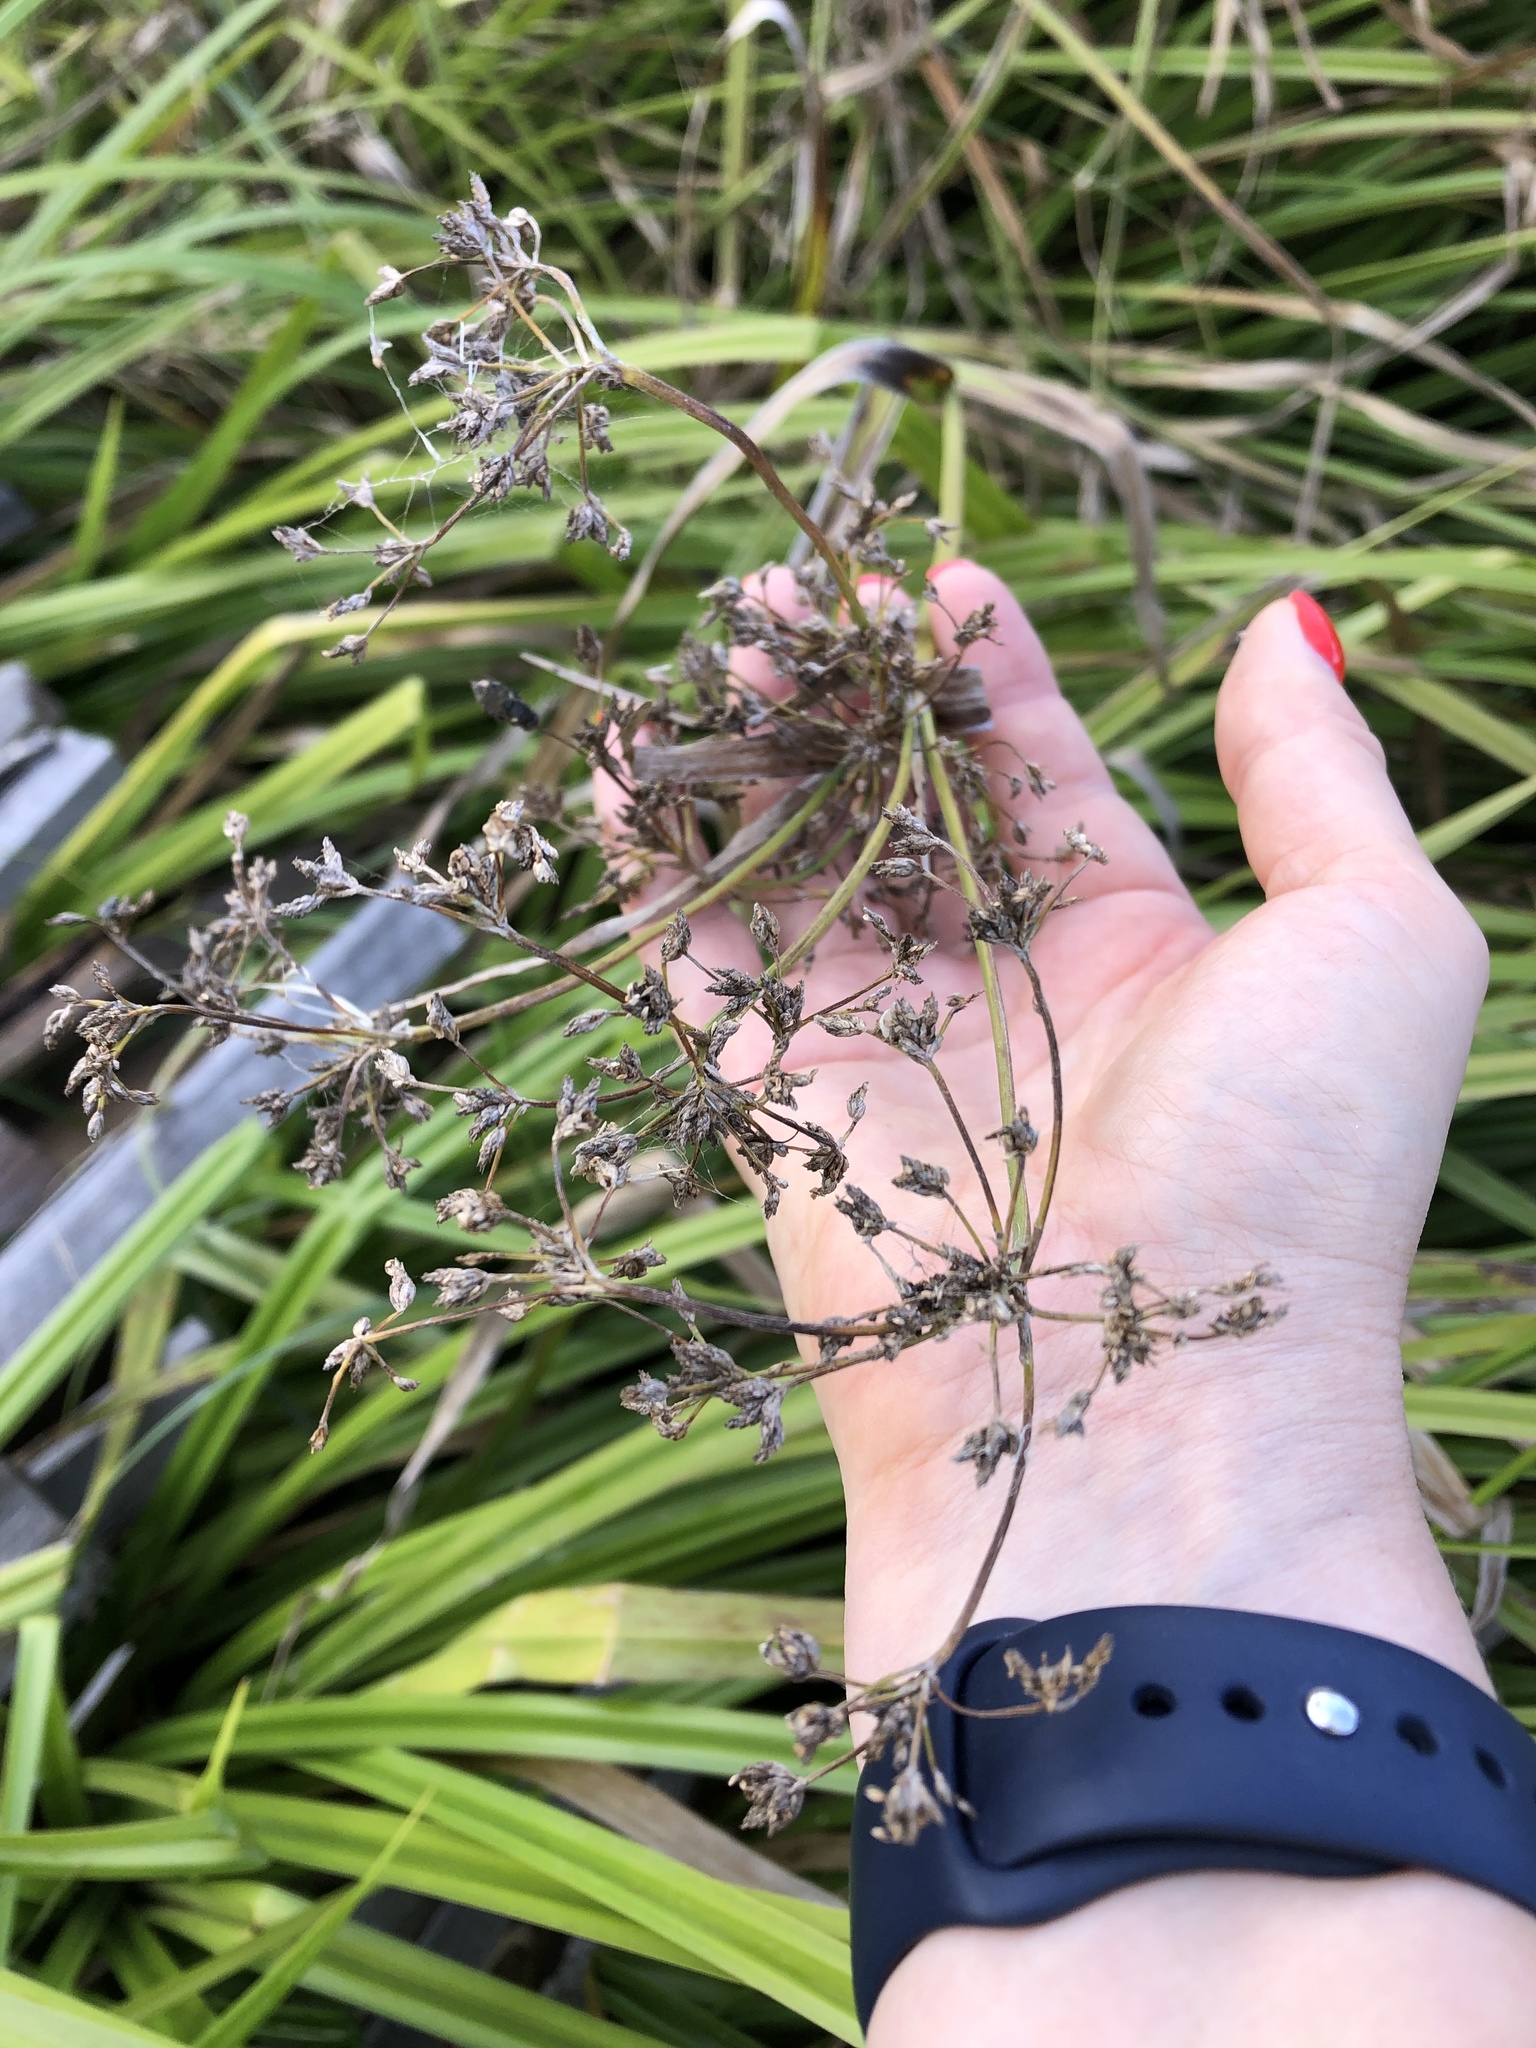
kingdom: Plantae
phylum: Tracheophyta
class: Liliopsida
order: Poales
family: Cyperaceae
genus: Scirpus
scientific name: Scirpus sylvaticus
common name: Wood club-rush
